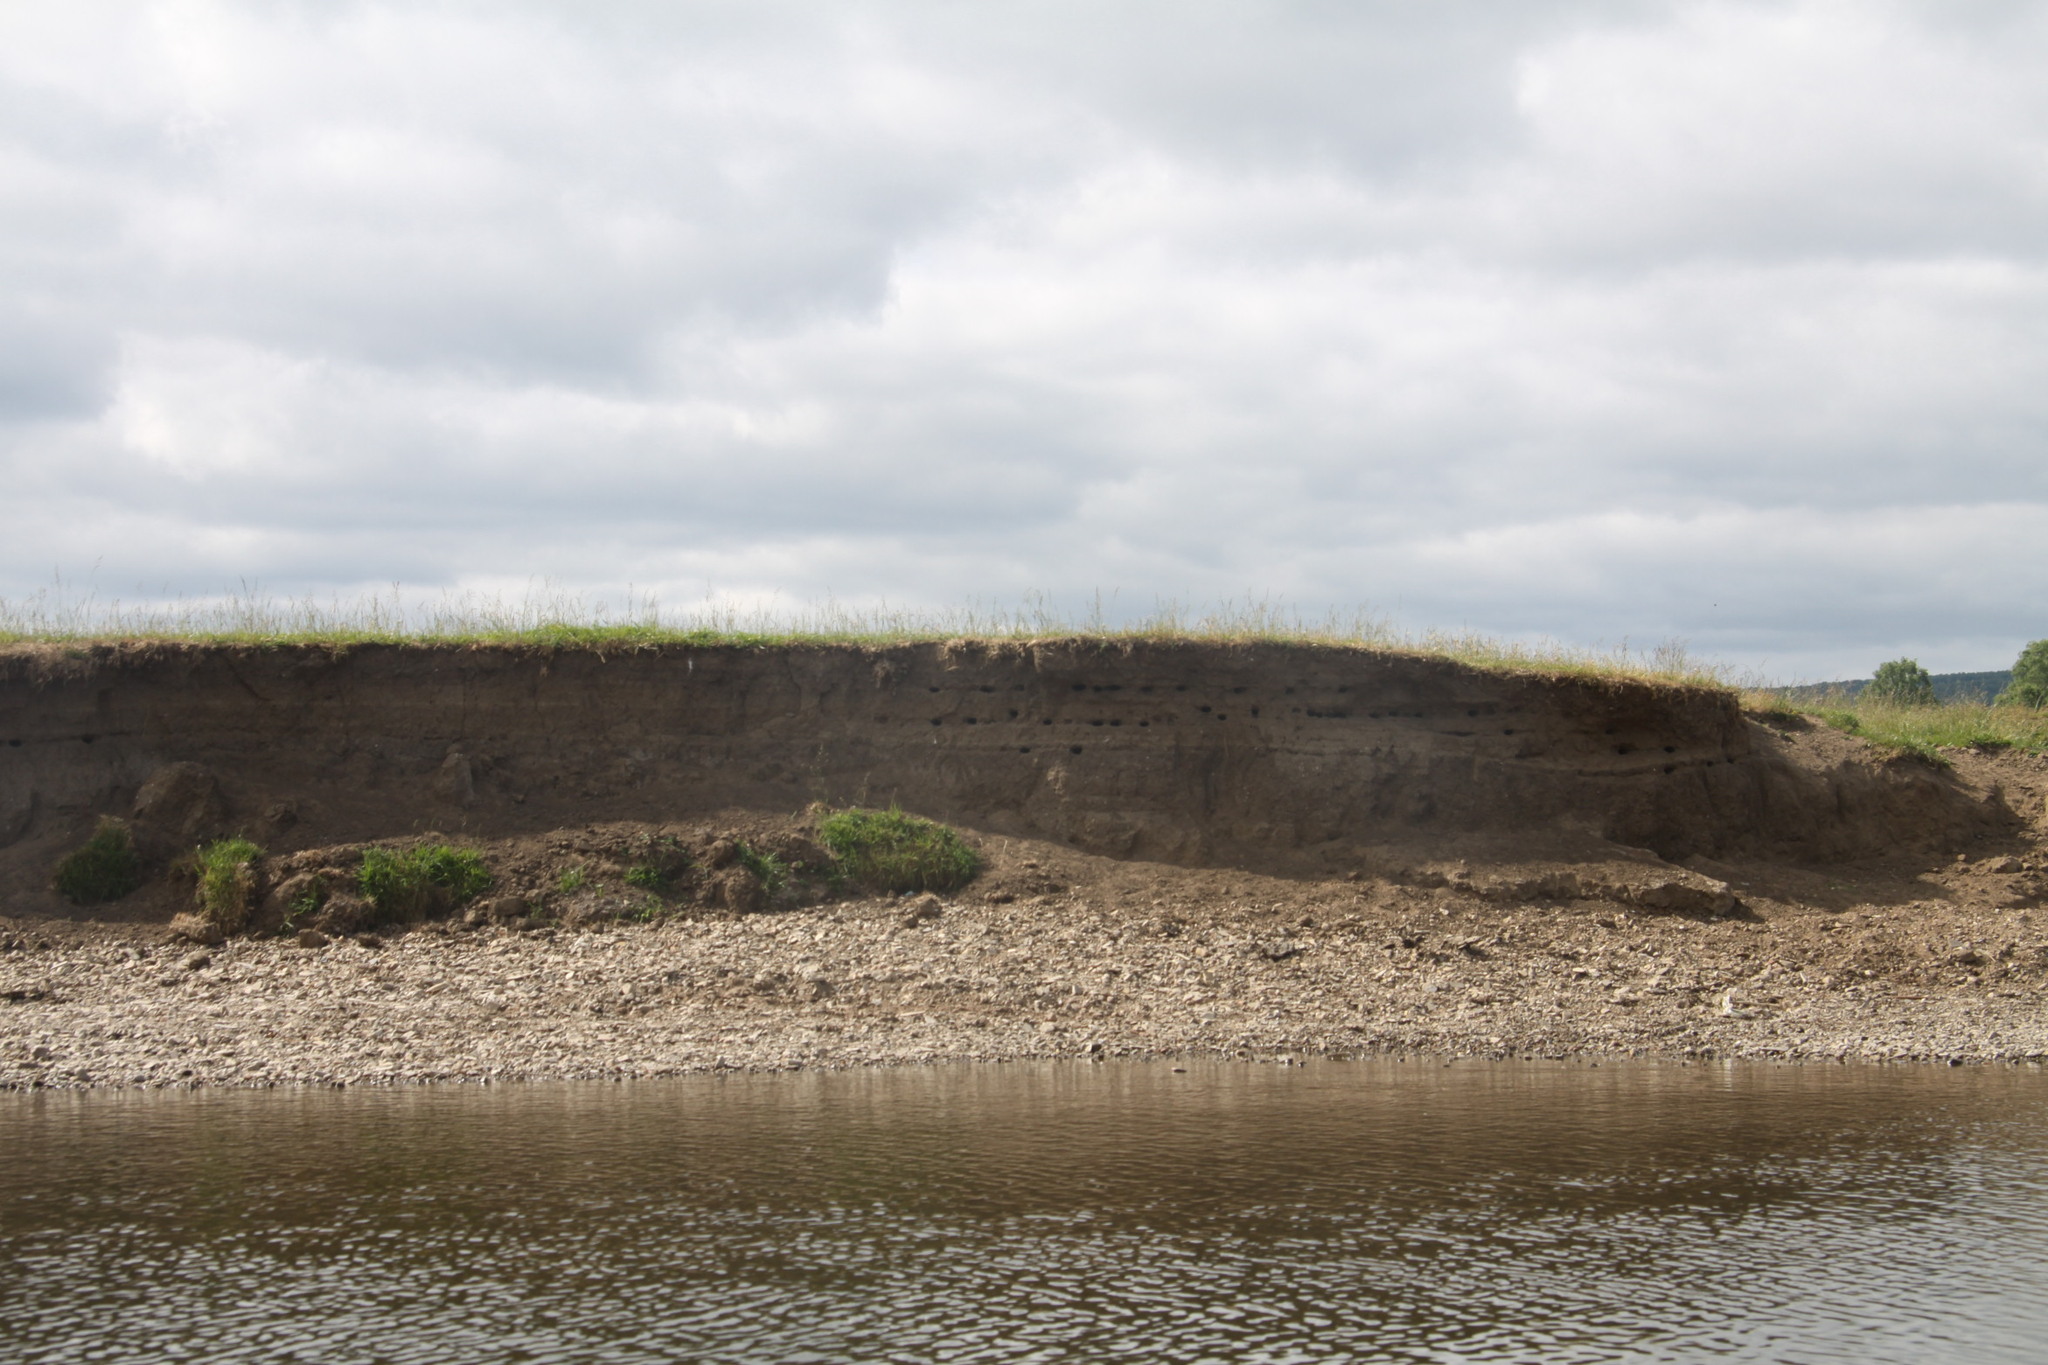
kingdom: Animalia
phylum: Chordata
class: Aves
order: Passeriformes
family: Hirundinidae
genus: Riparia
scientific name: Riparia riparia
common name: Sand martin
